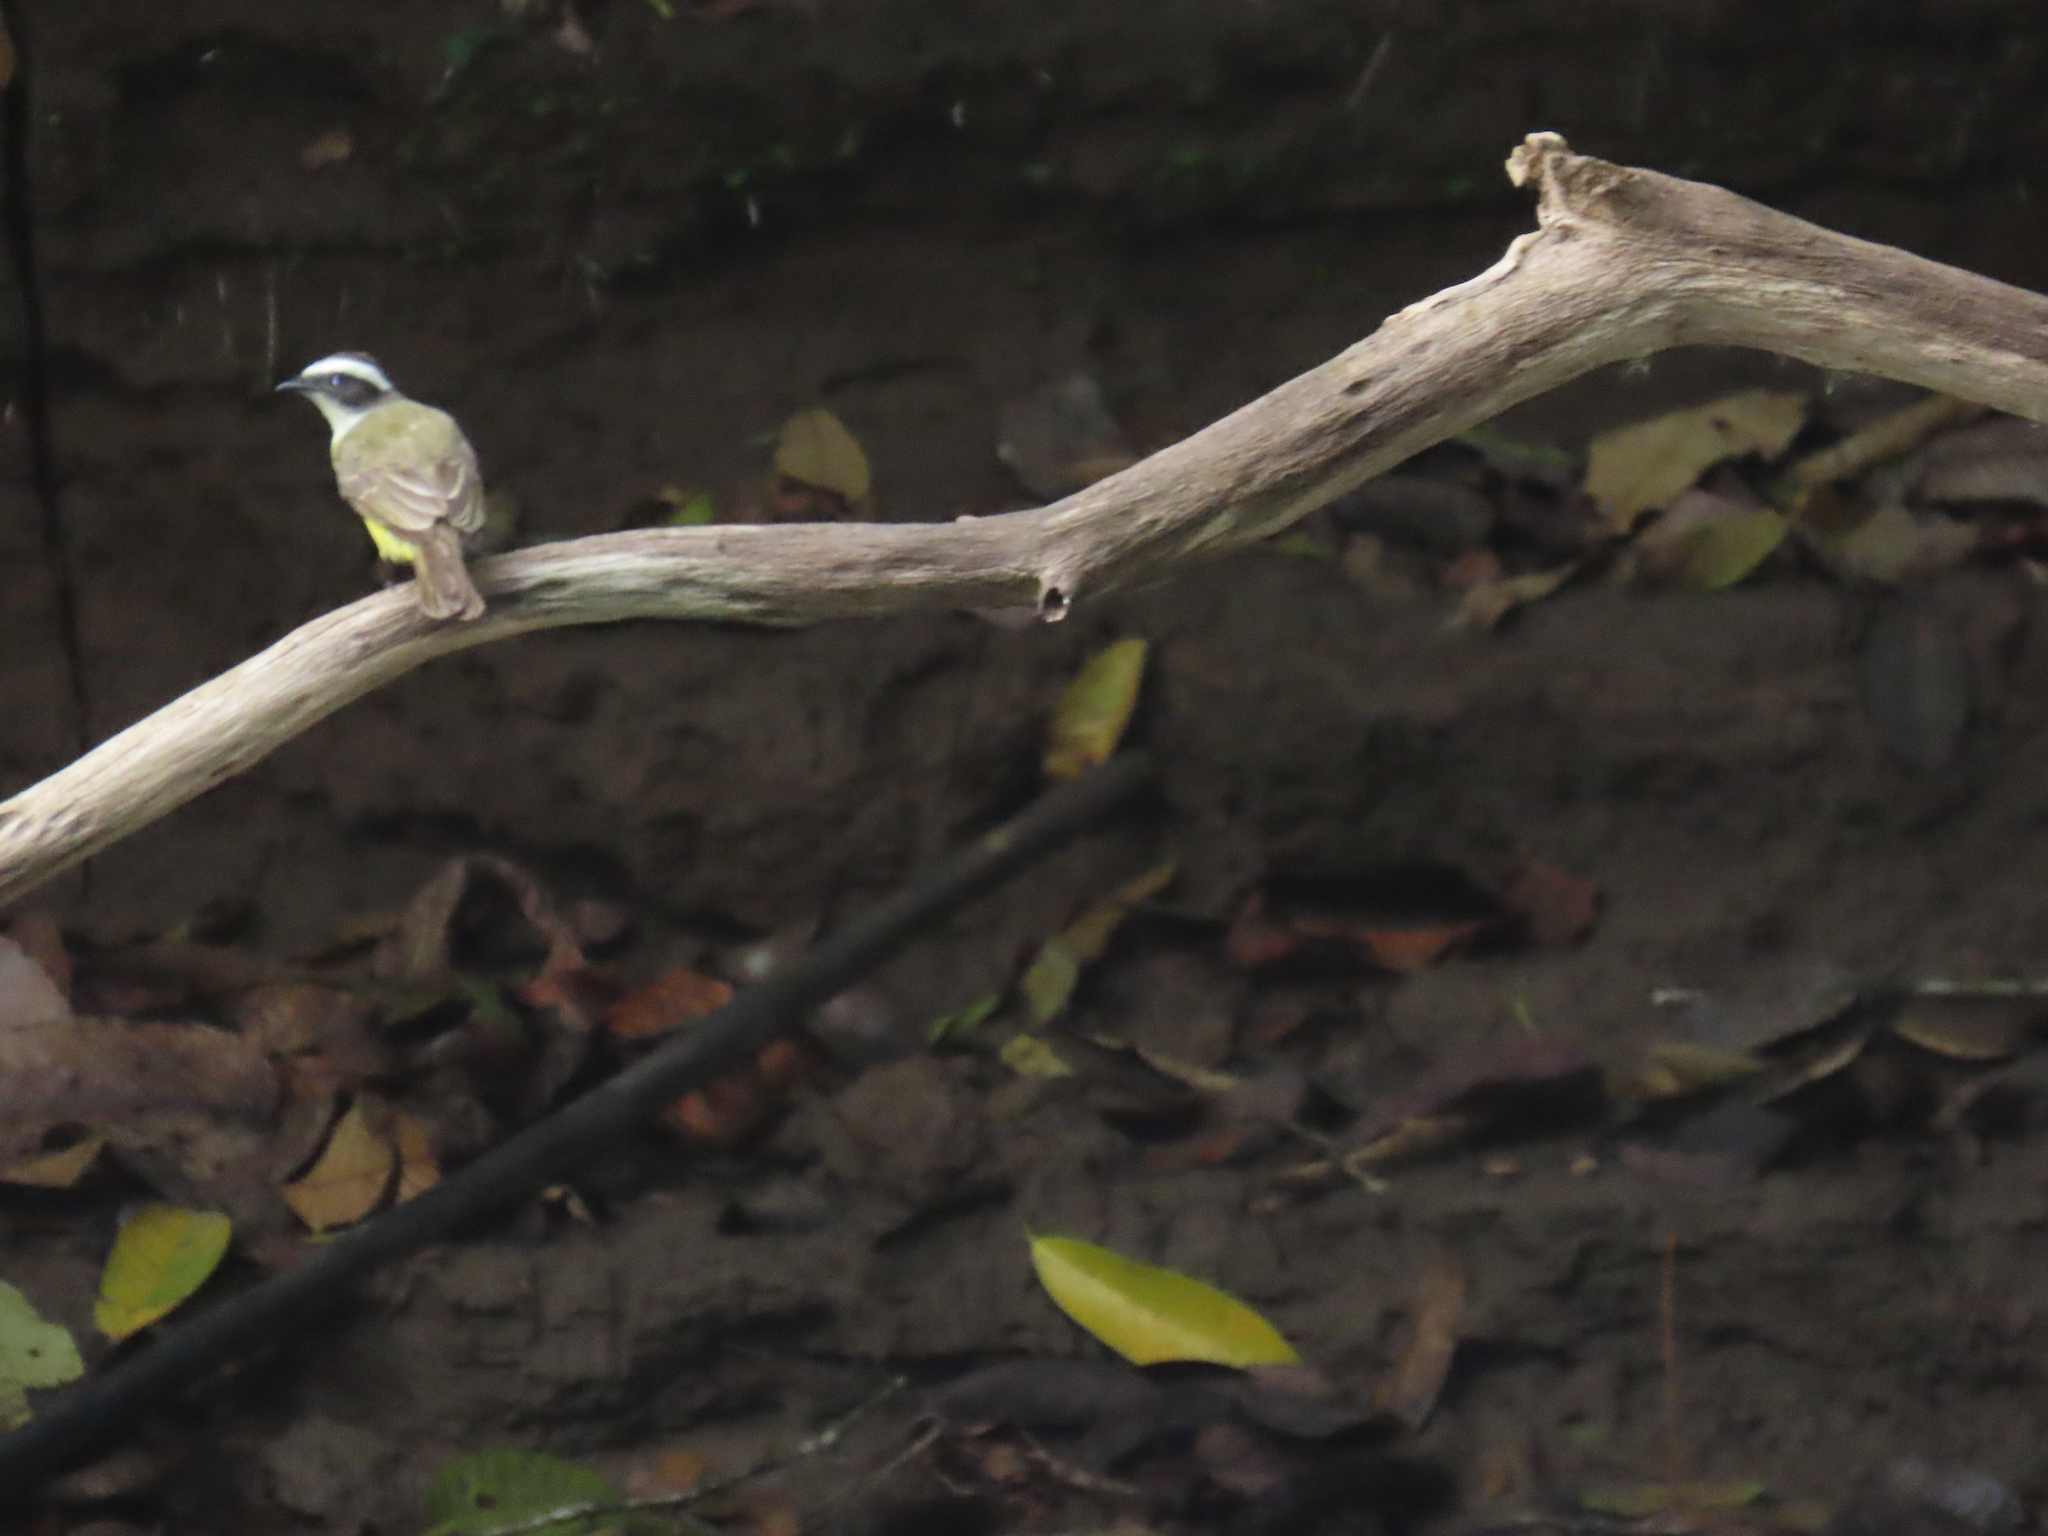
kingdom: Animalia
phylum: Chordata
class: Aves
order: Passeriformes
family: Tyrannidae
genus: Myiozetetes
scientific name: Myiozetetes similis
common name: Social flycatcher
